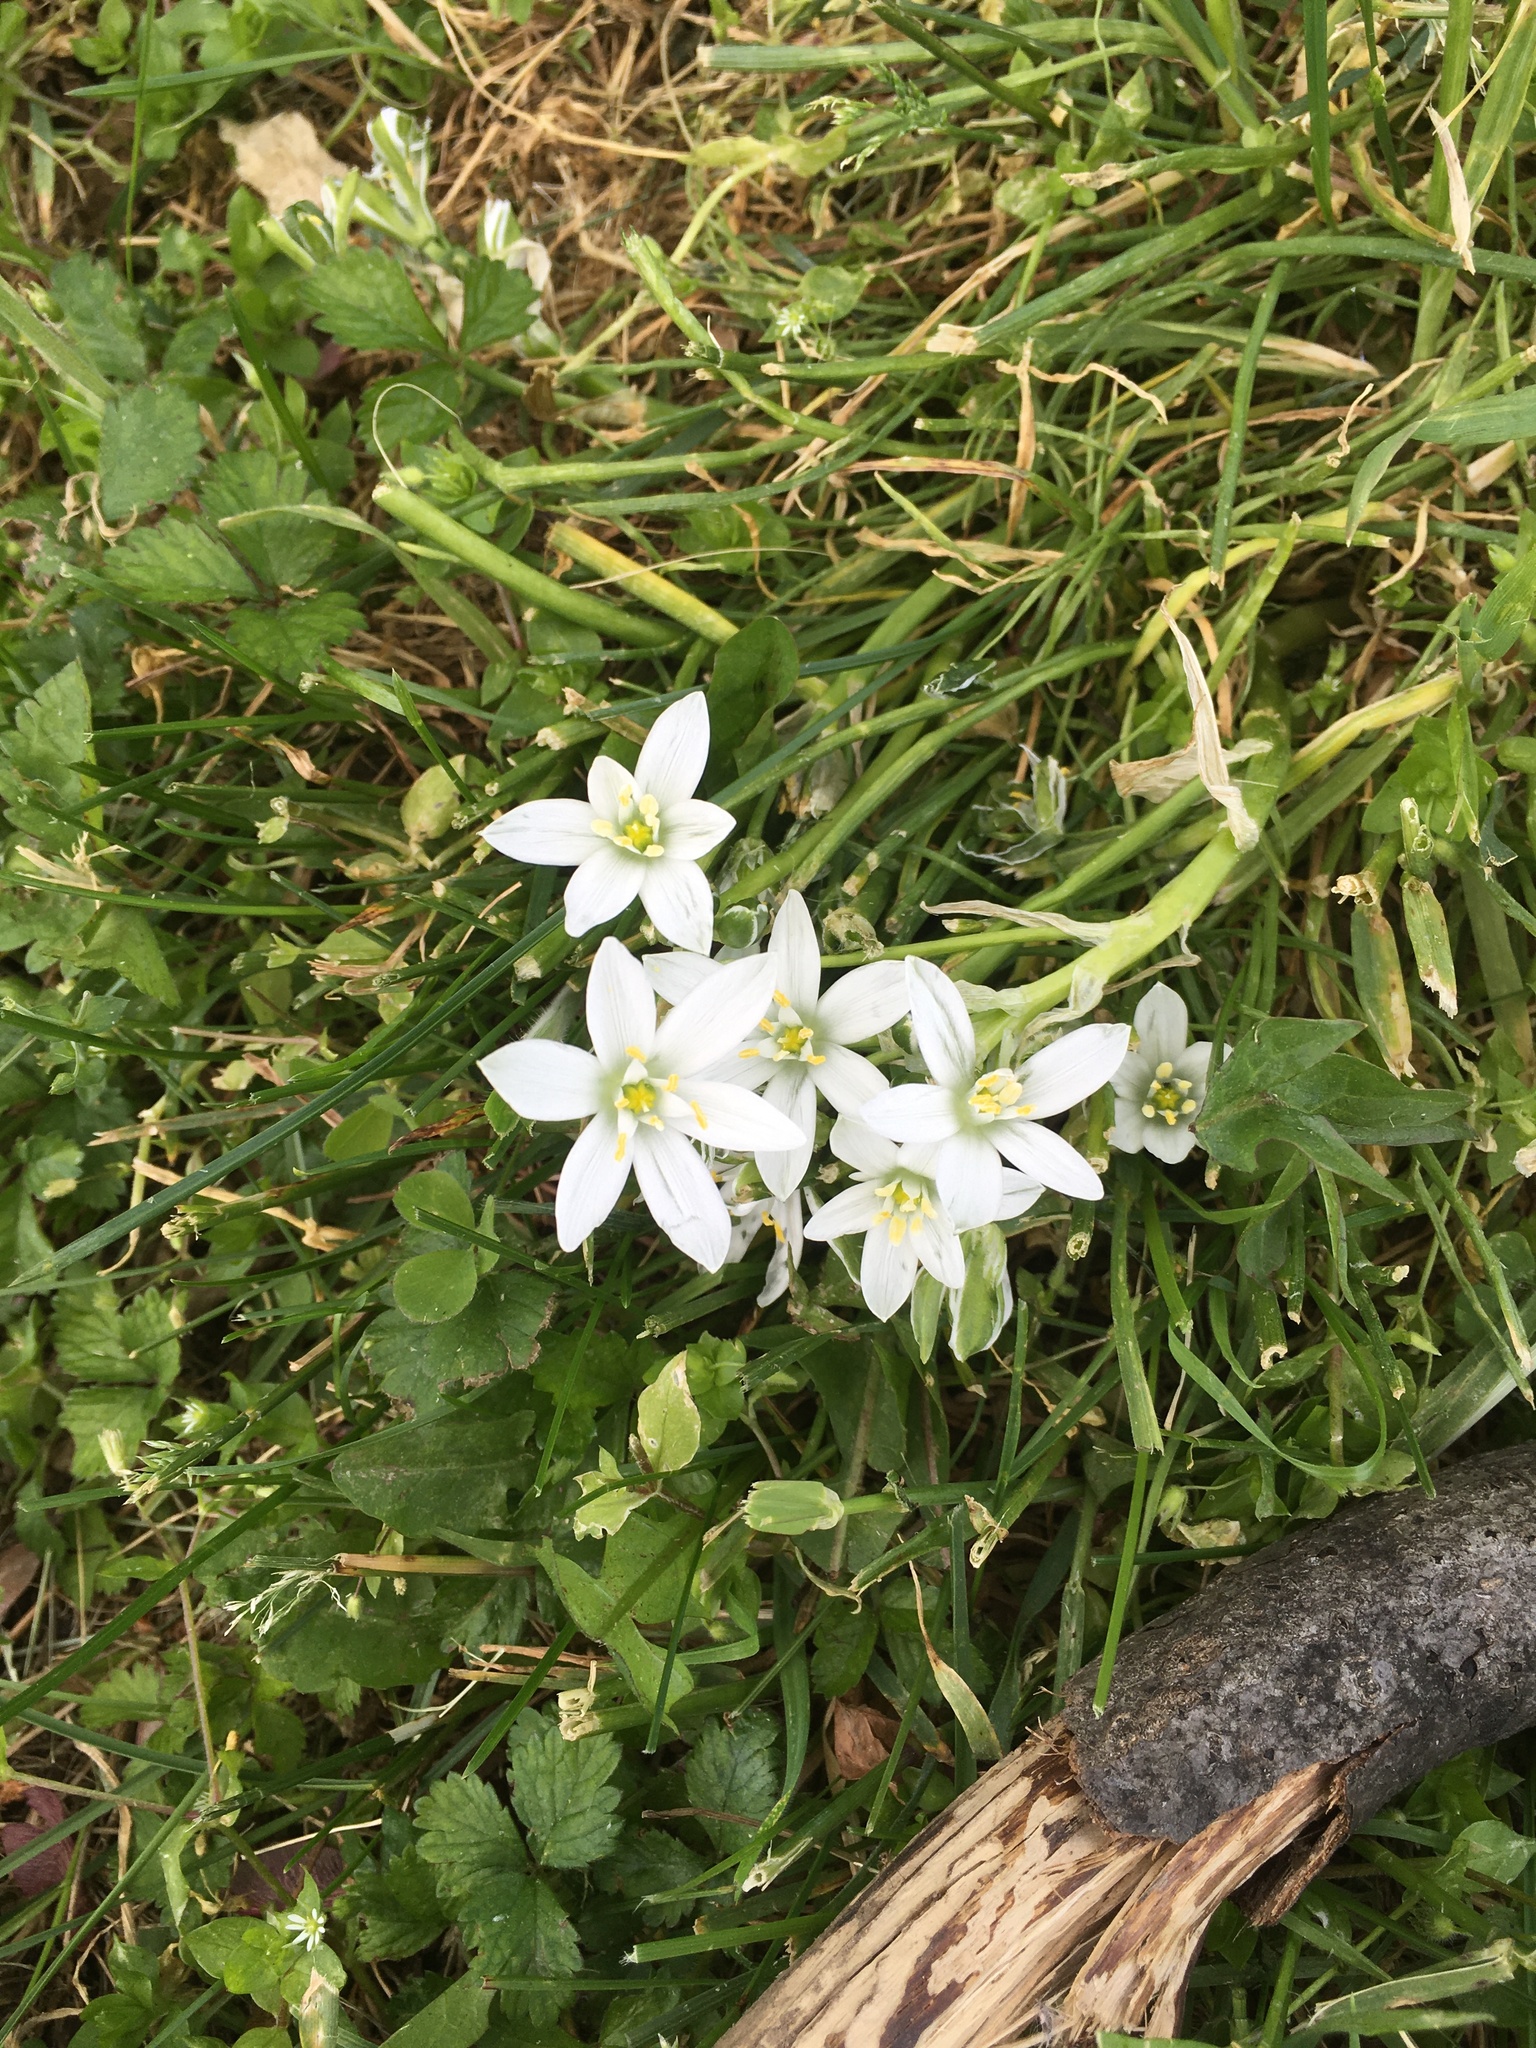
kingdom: Plantae
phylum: Tracheophyta
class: Liliopsida
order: Asparagales
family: Asparagaceae
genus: Ornithogalum
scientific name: Ornithogalum umbellatum
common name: Garden star-of-bethlehem
